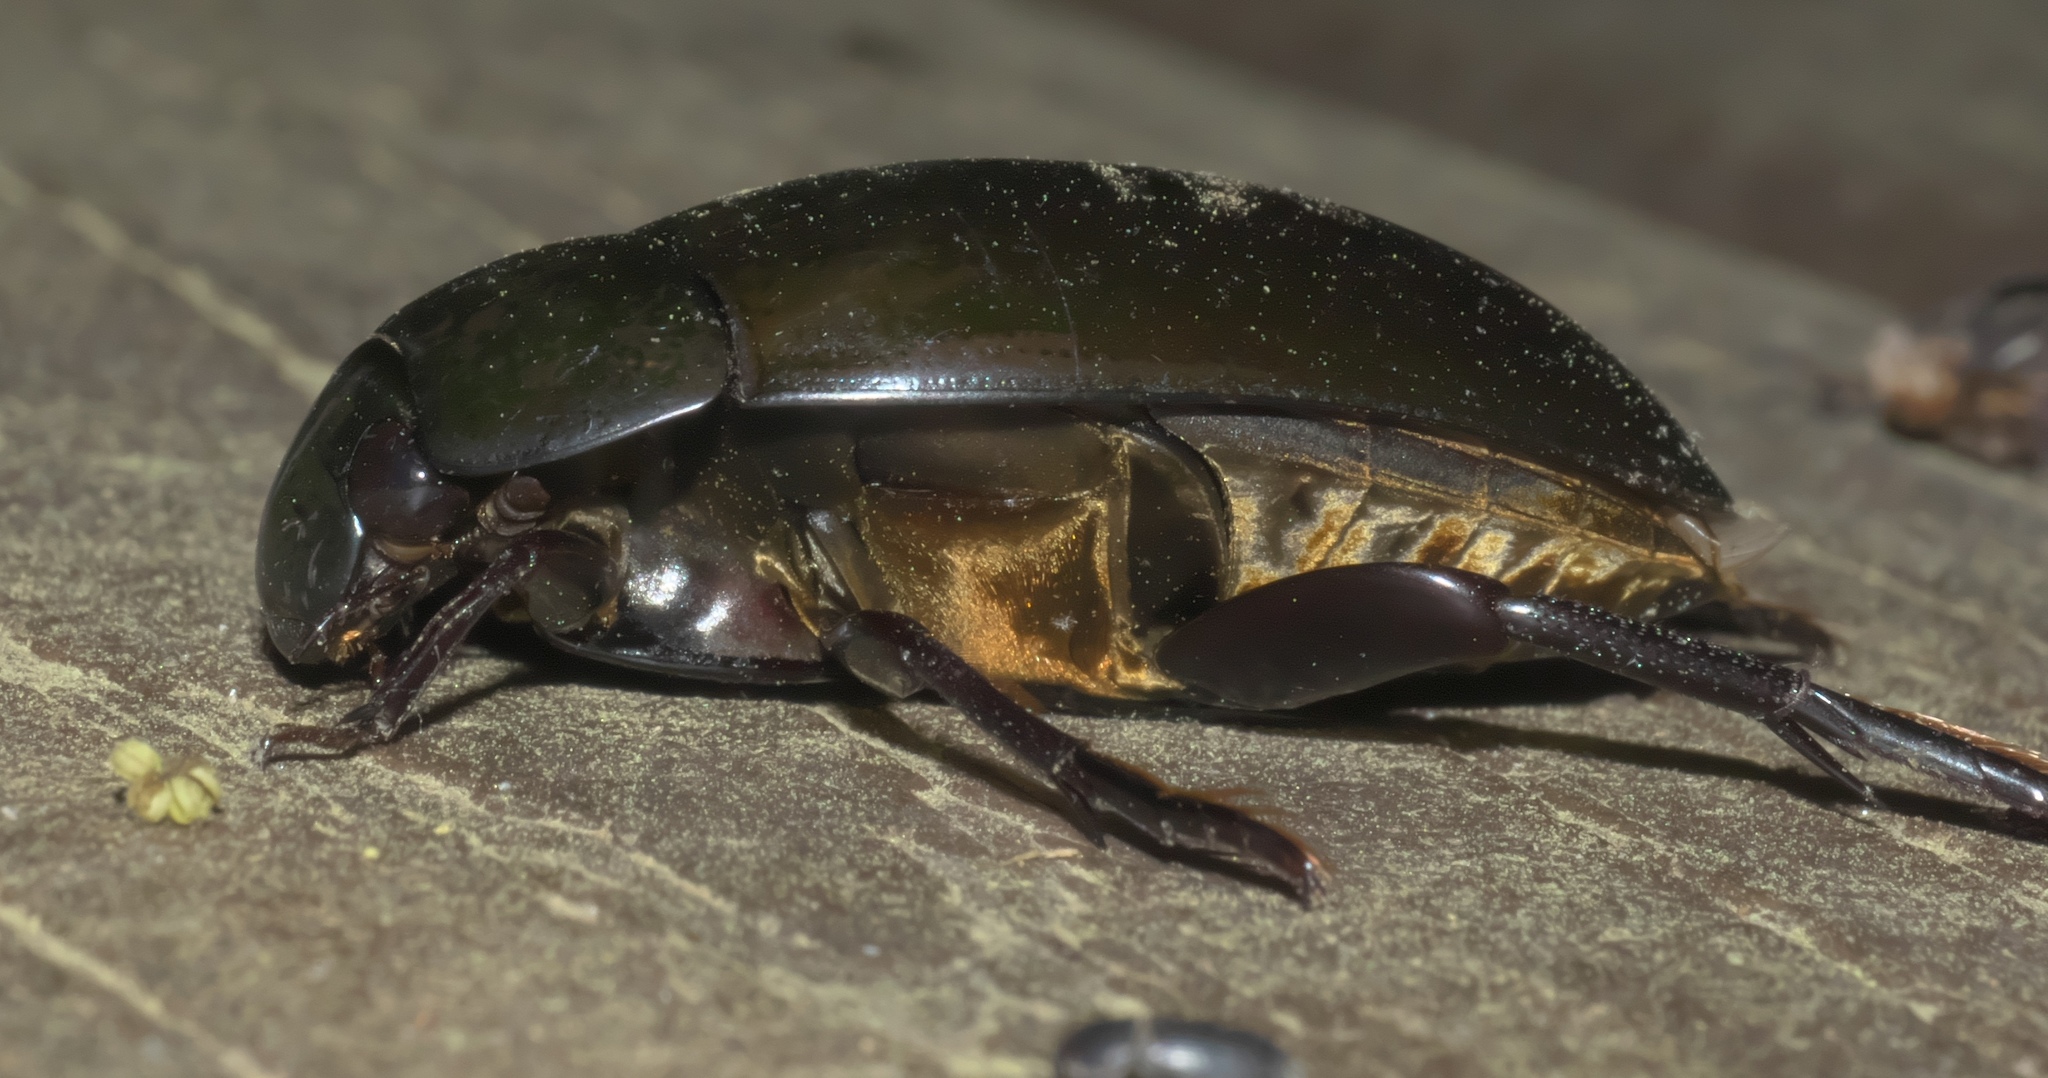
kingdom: Animalia
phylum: Arthropoda
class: Insecta
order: Coleoptera
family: Hydrophilidae
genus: Hydrophilus
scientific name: Hydrophilus ovatus
